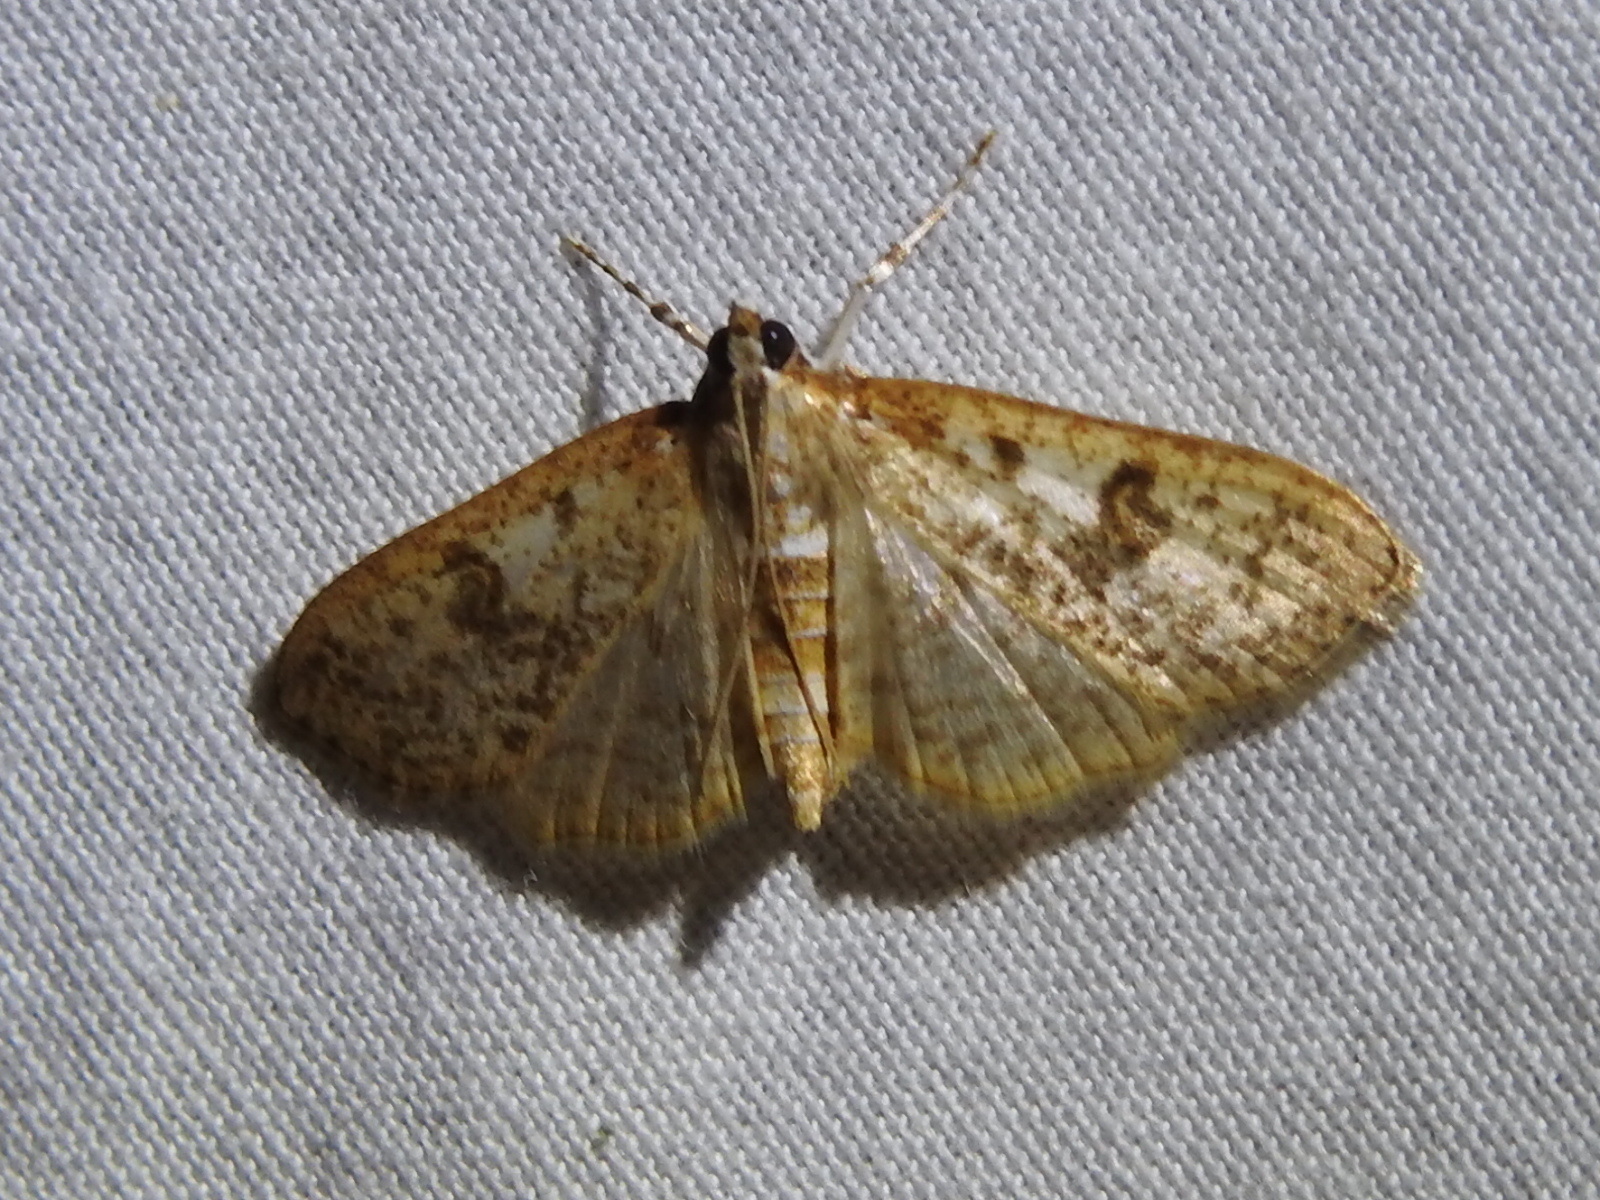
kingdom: Animalia
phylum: Arthropoda
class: Insecta
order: Lepidoptera
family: Crambidae
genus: Palpita
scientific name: Palpita freemanalis
